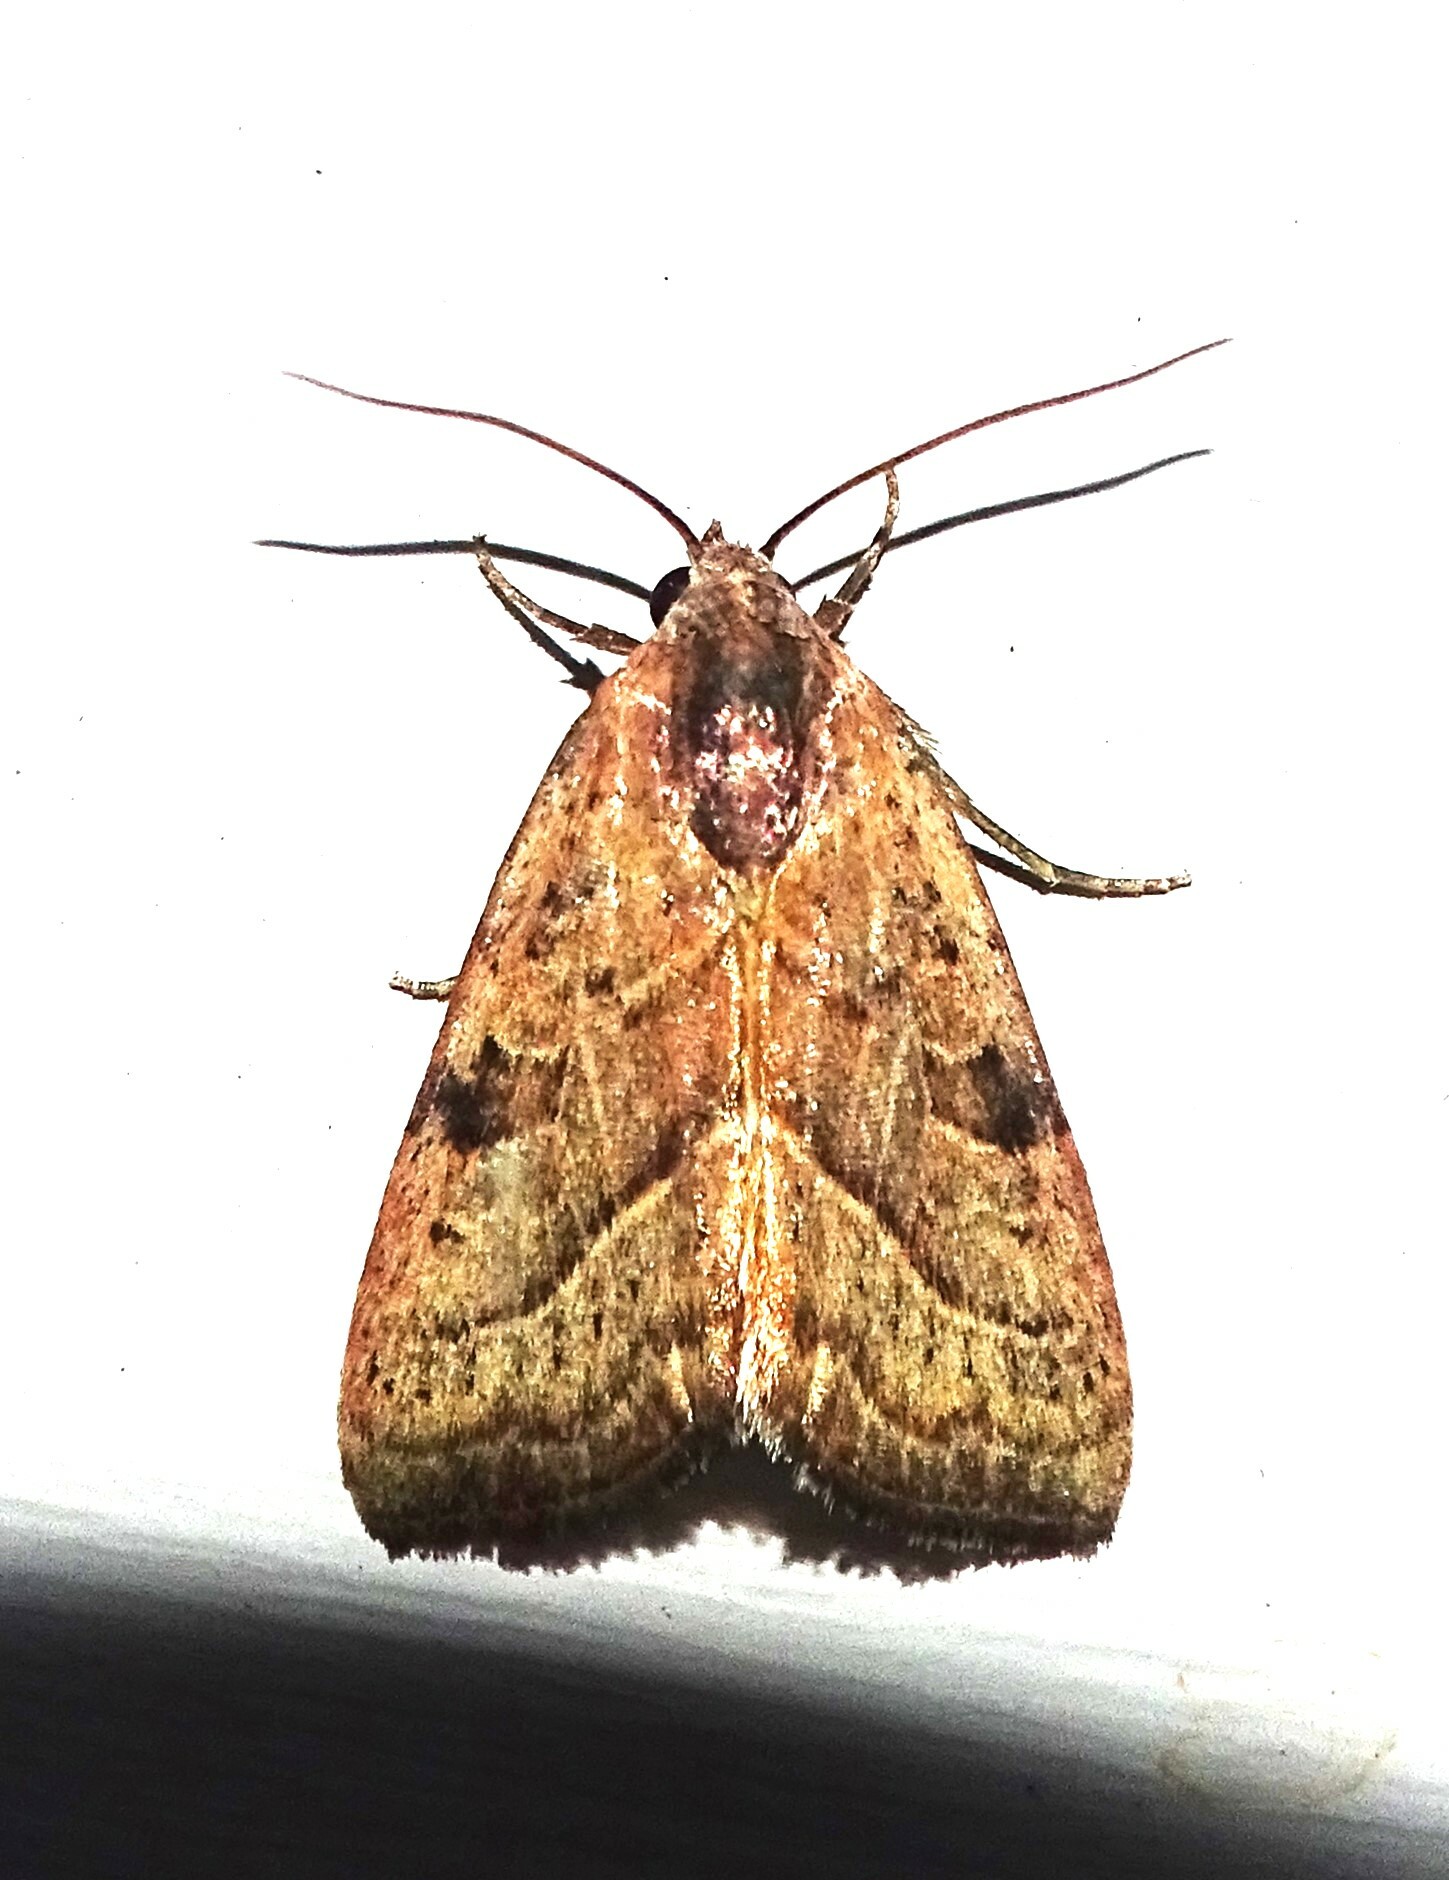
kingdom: Animalia
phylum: Arthropoda
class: Insecta
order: Lepidoptera
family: Noctuidae
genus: Galgula
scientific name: Galgula partita
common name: Wedgeling
